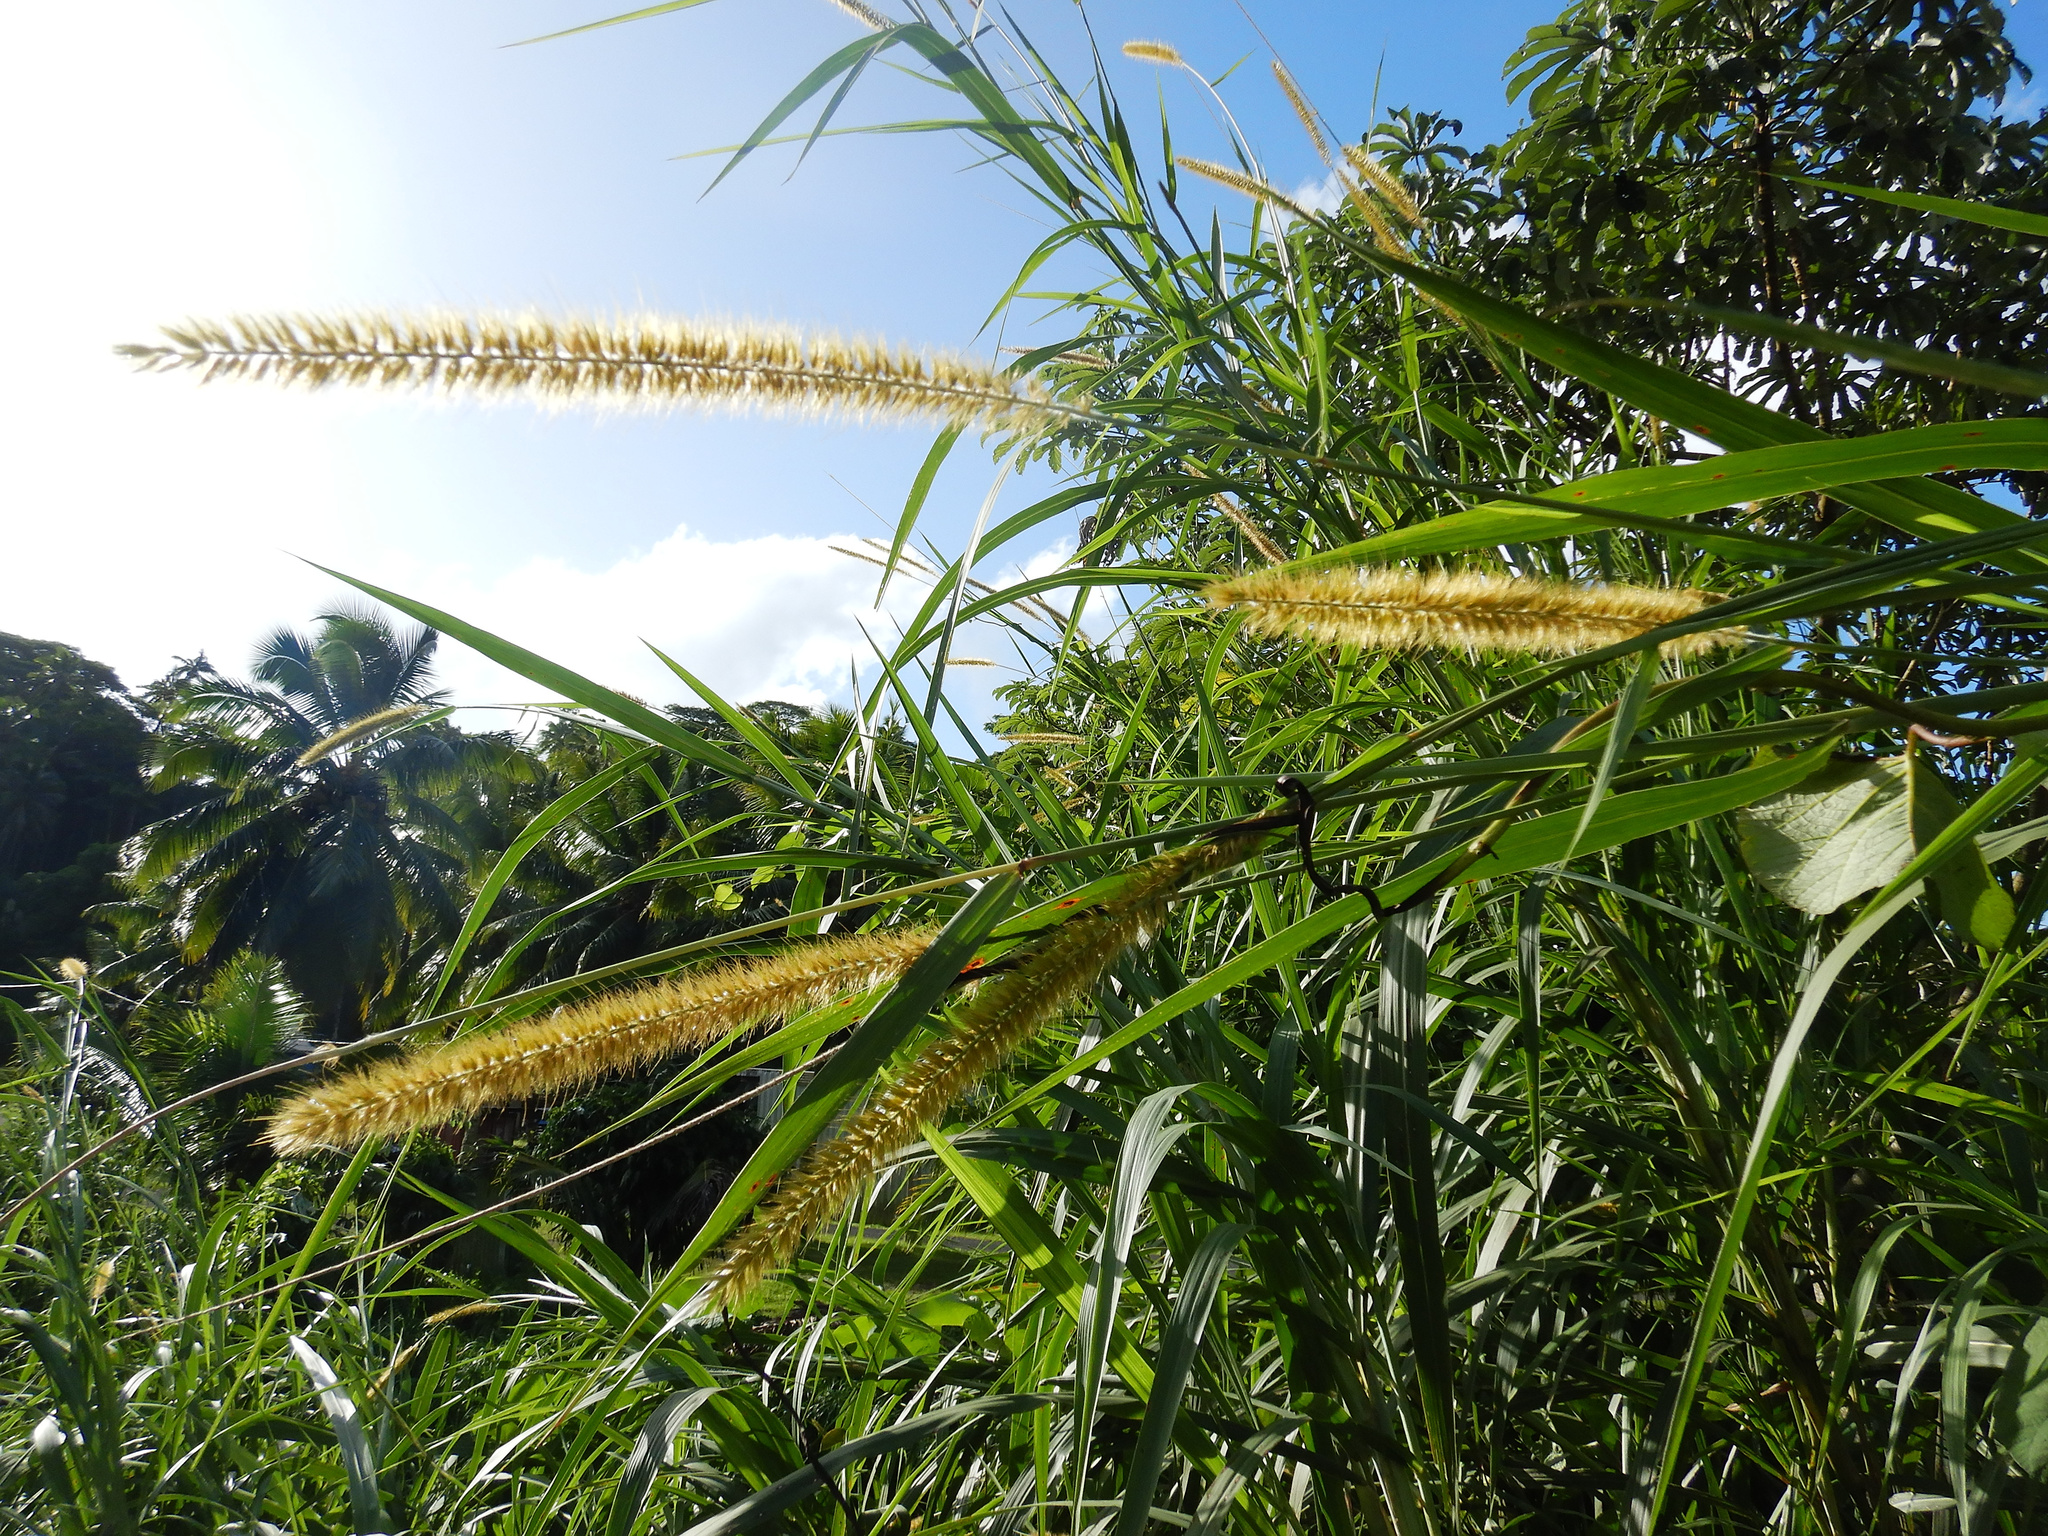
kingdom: Plantae
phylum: Tracheophyta
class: Liliopsida
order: Poales
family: Poaceae
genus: Cenchrus
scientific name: Cenchrus purpureus
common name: Elephant grass
